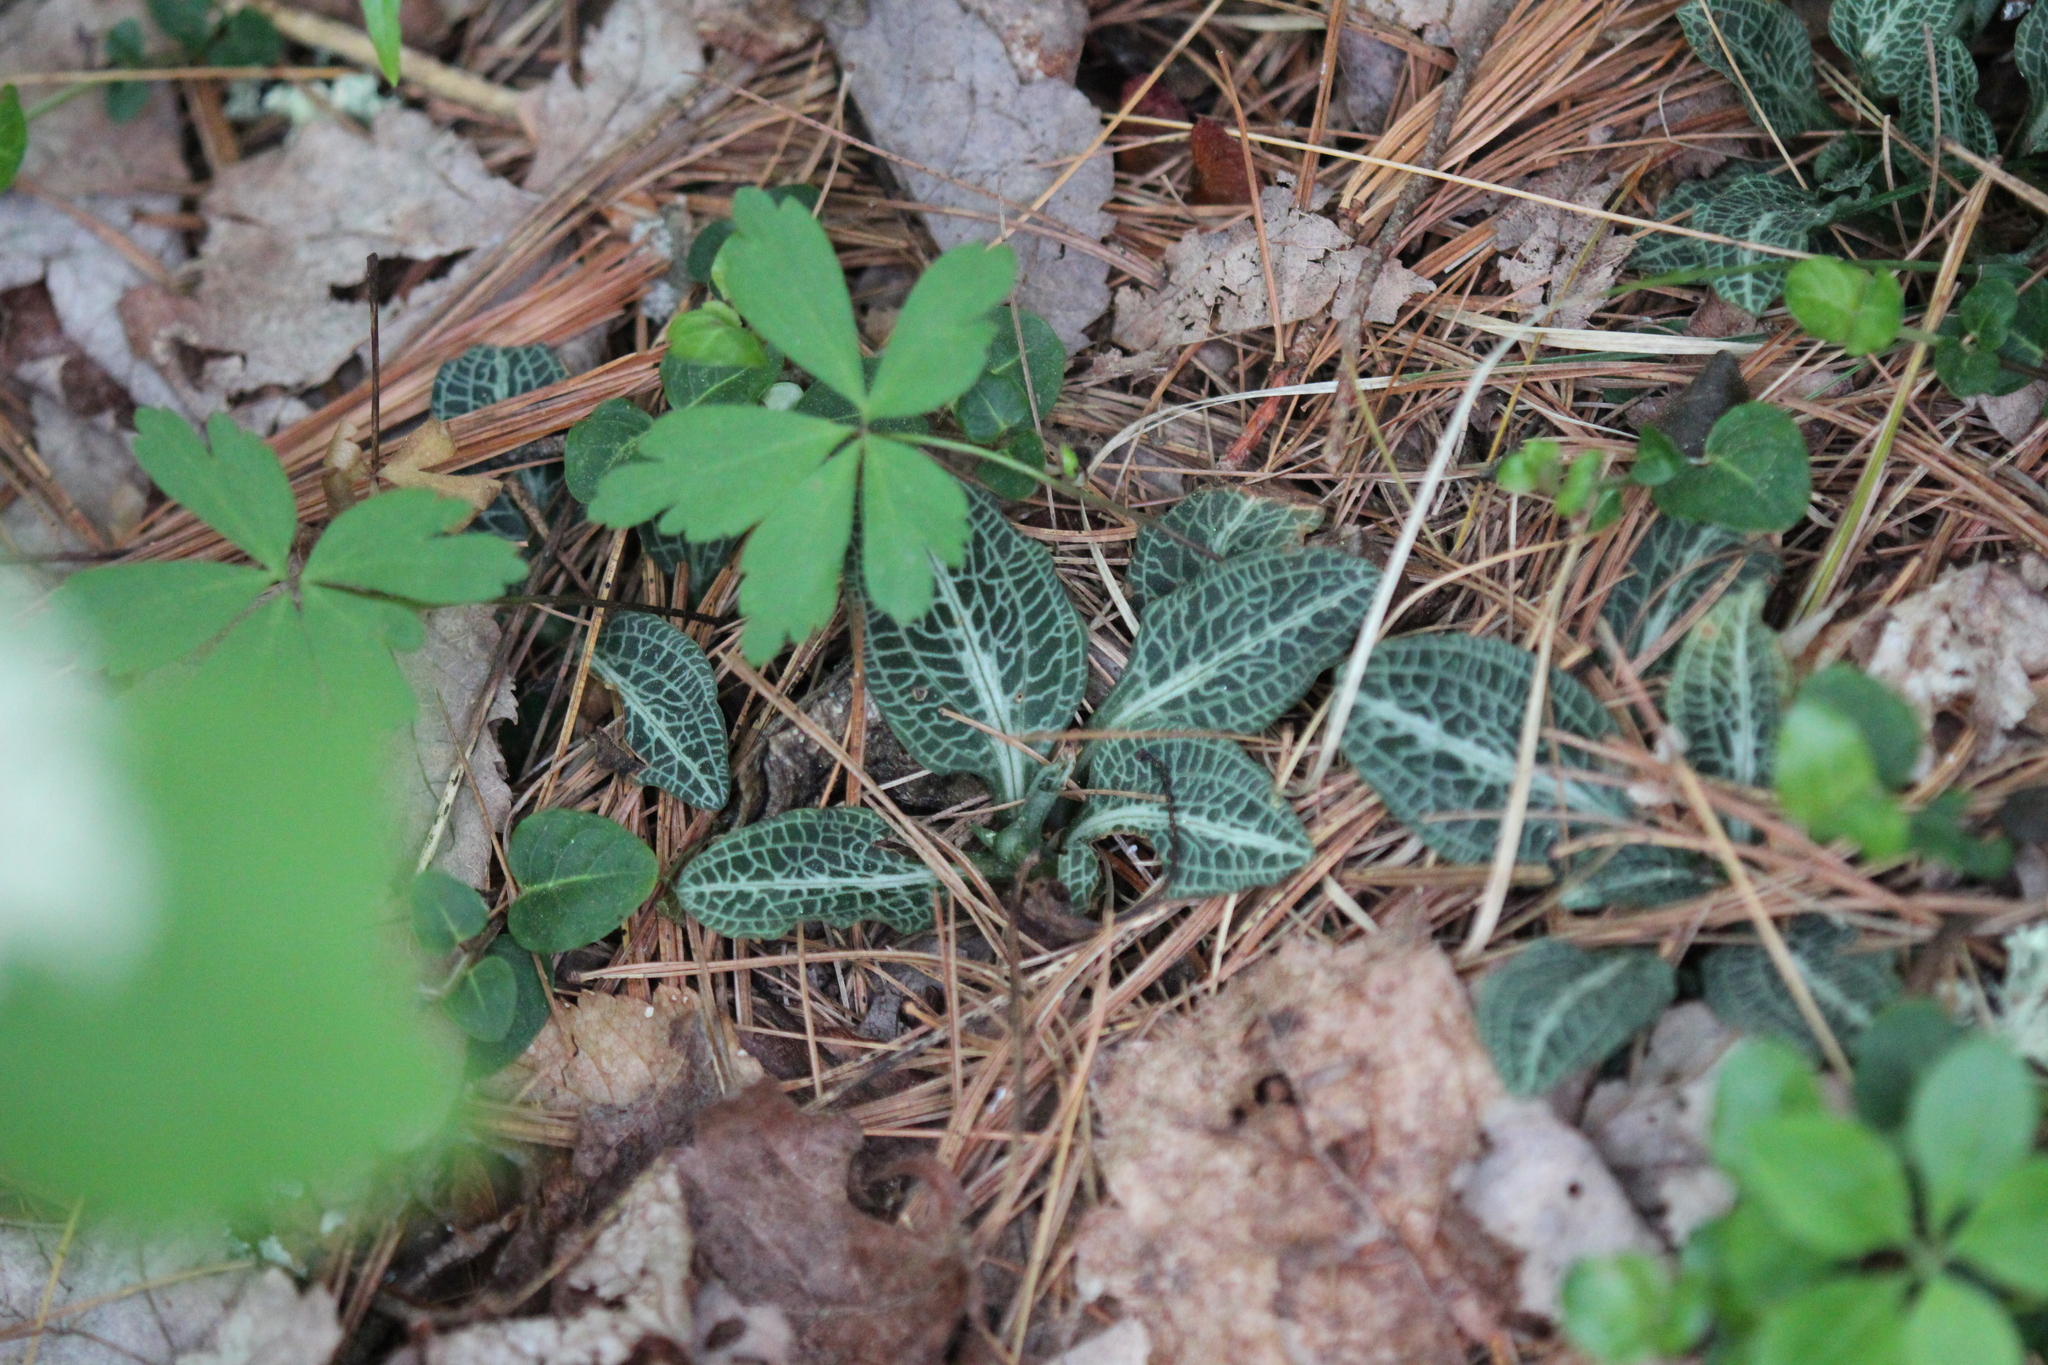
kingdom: Plantae
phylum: Tracheophyta
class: Liliopsida
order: Asparagales
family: Orchidaceae
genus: Goodyera
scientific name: Goodyera pubescens
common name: Downy rattlesnake-plantain
